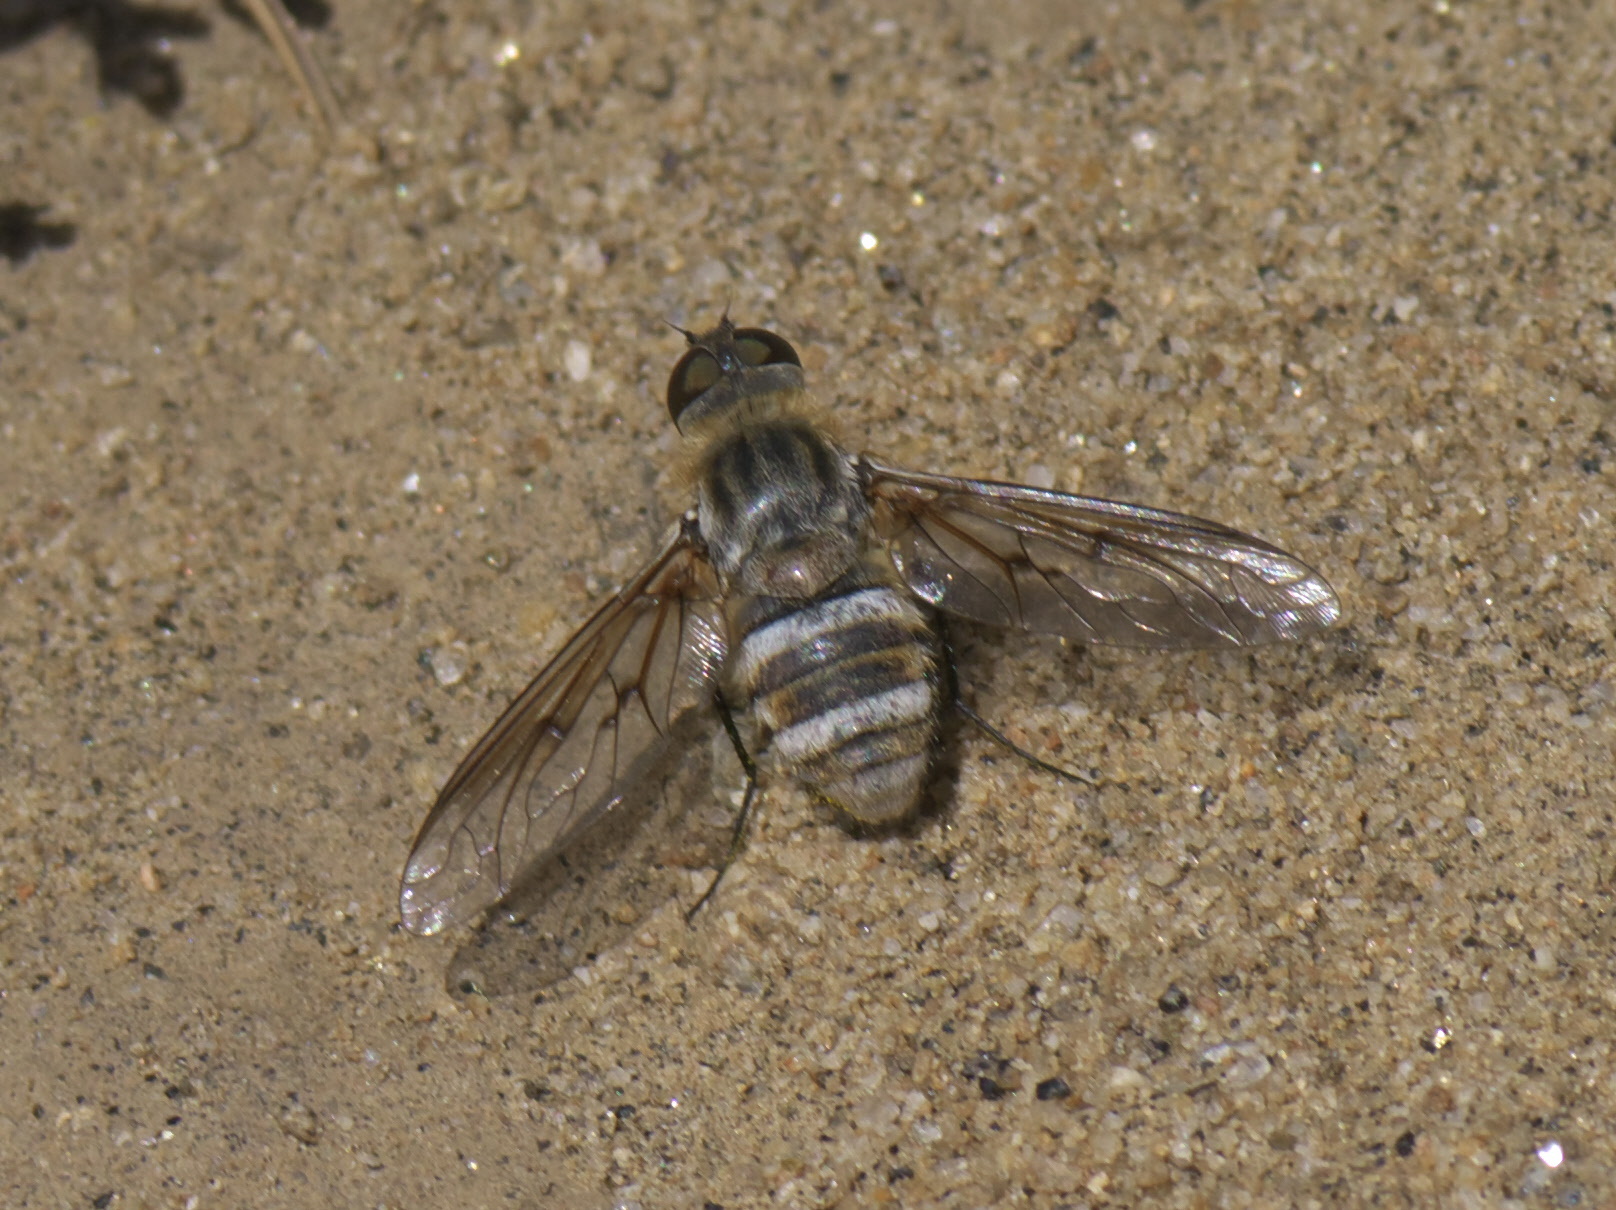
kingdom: Animalia
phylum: Arthropoda
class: Insecta
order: Diptera
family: Bombyliidae
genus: Exoprosopa
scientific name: Exoprosopa agassizii
